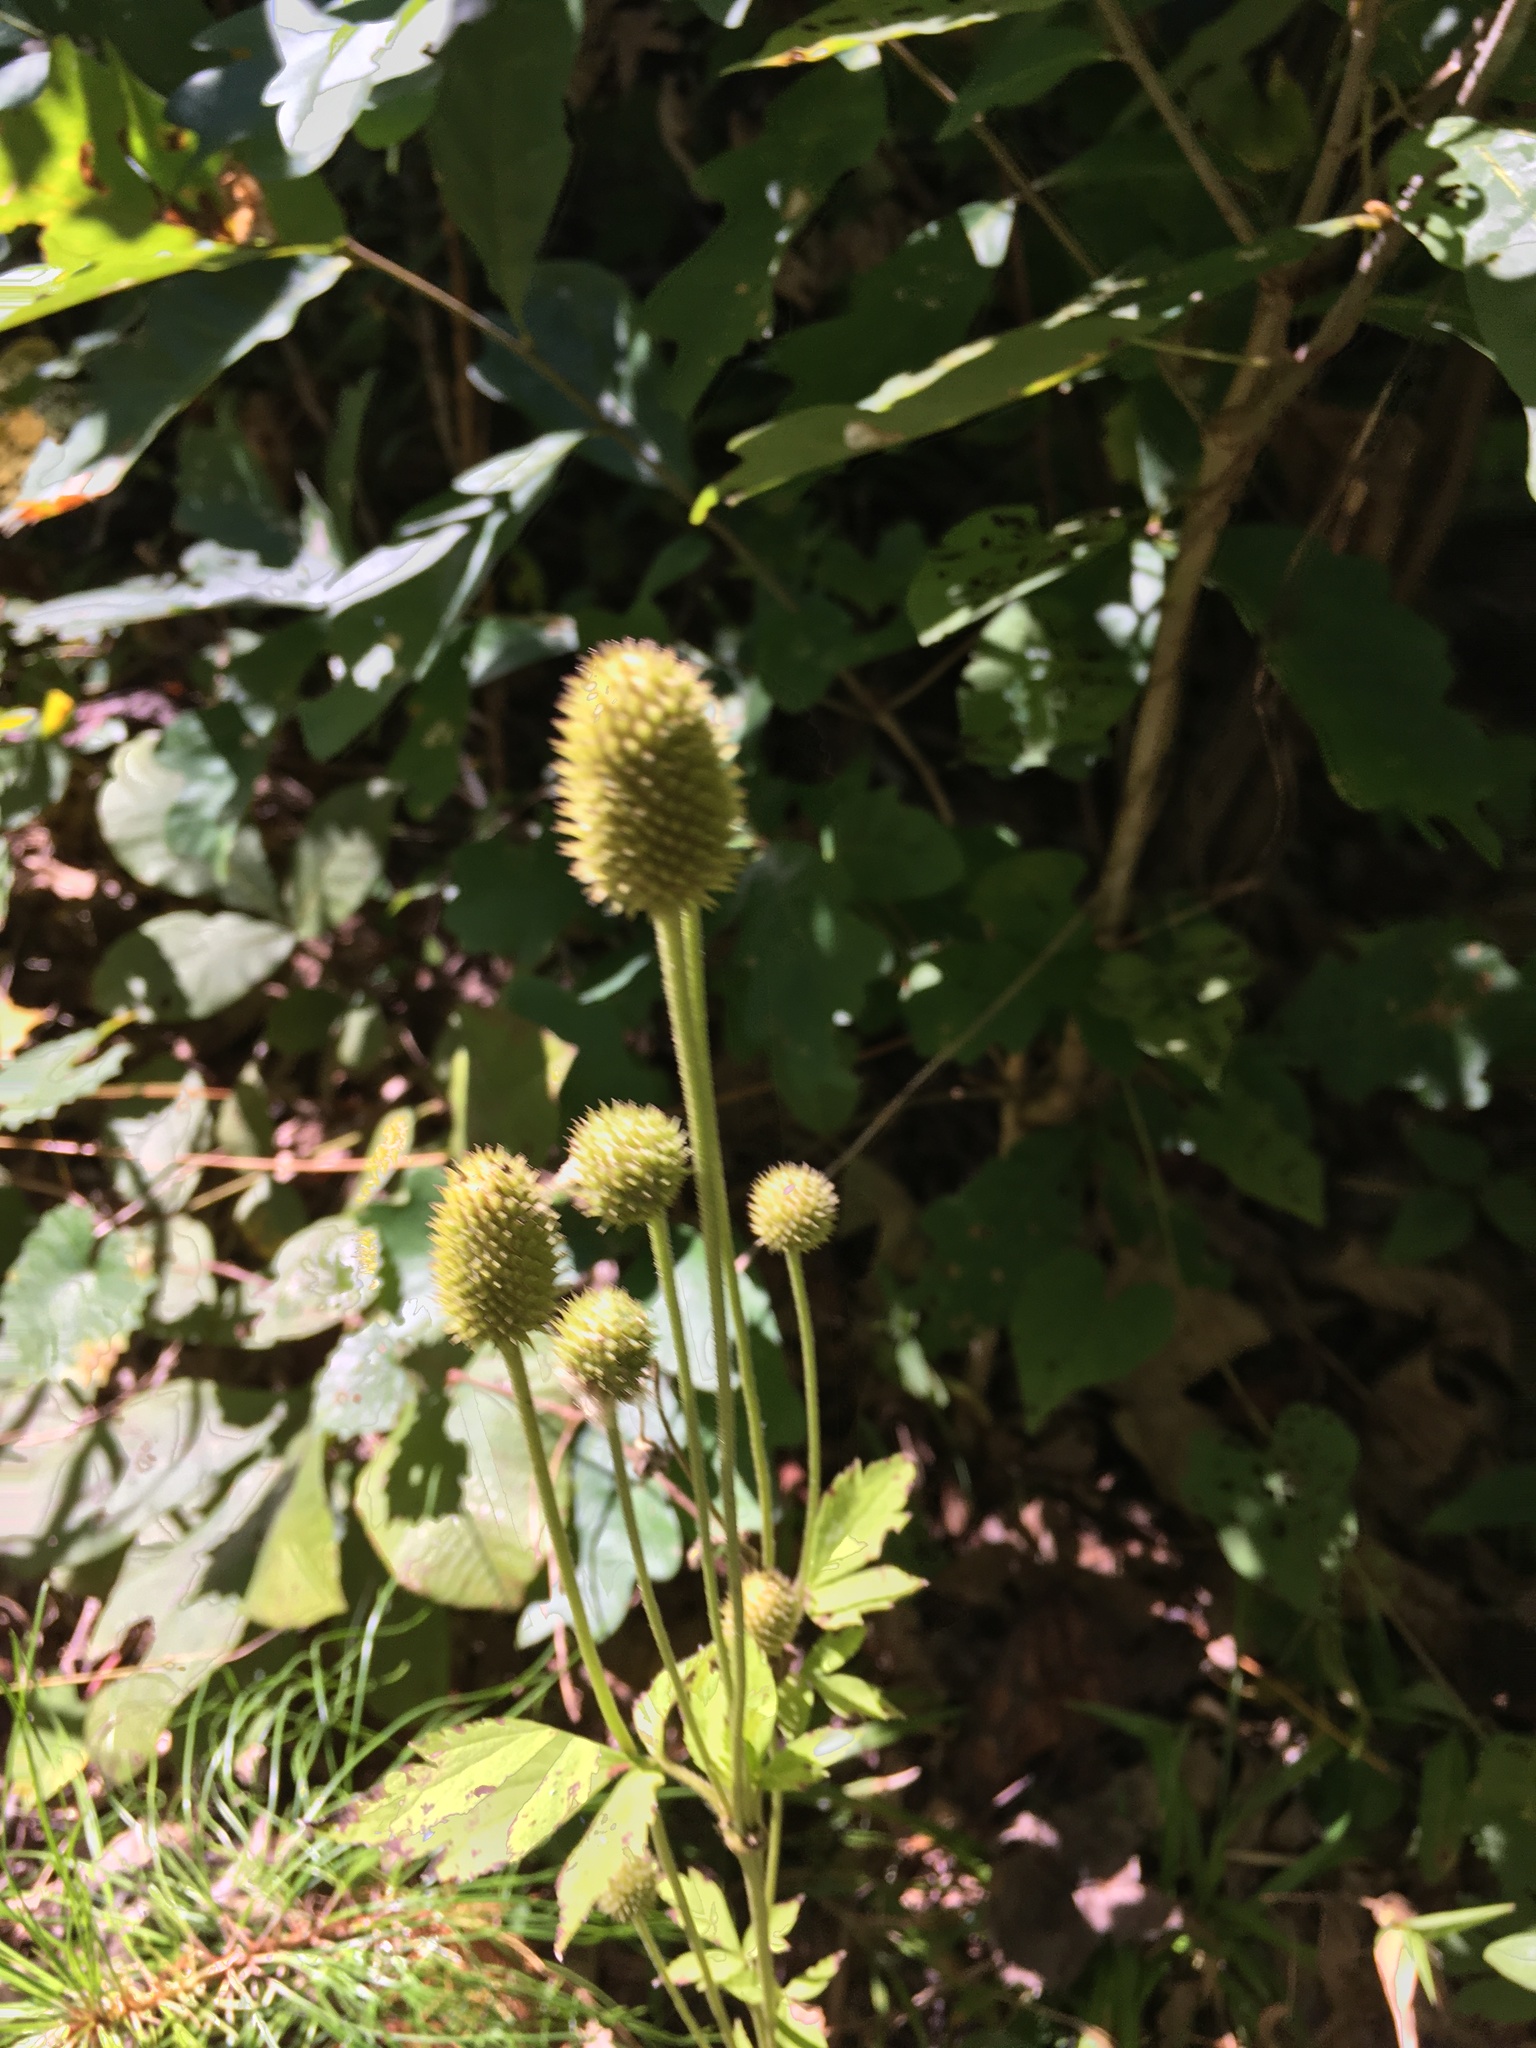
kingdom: Plantae
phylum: Tracheophyta
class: Magnoliopsida
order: Ranunculales
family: Ranunculaceae
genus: Anemone
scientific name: Anemone virginiana
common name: Tall anemone
